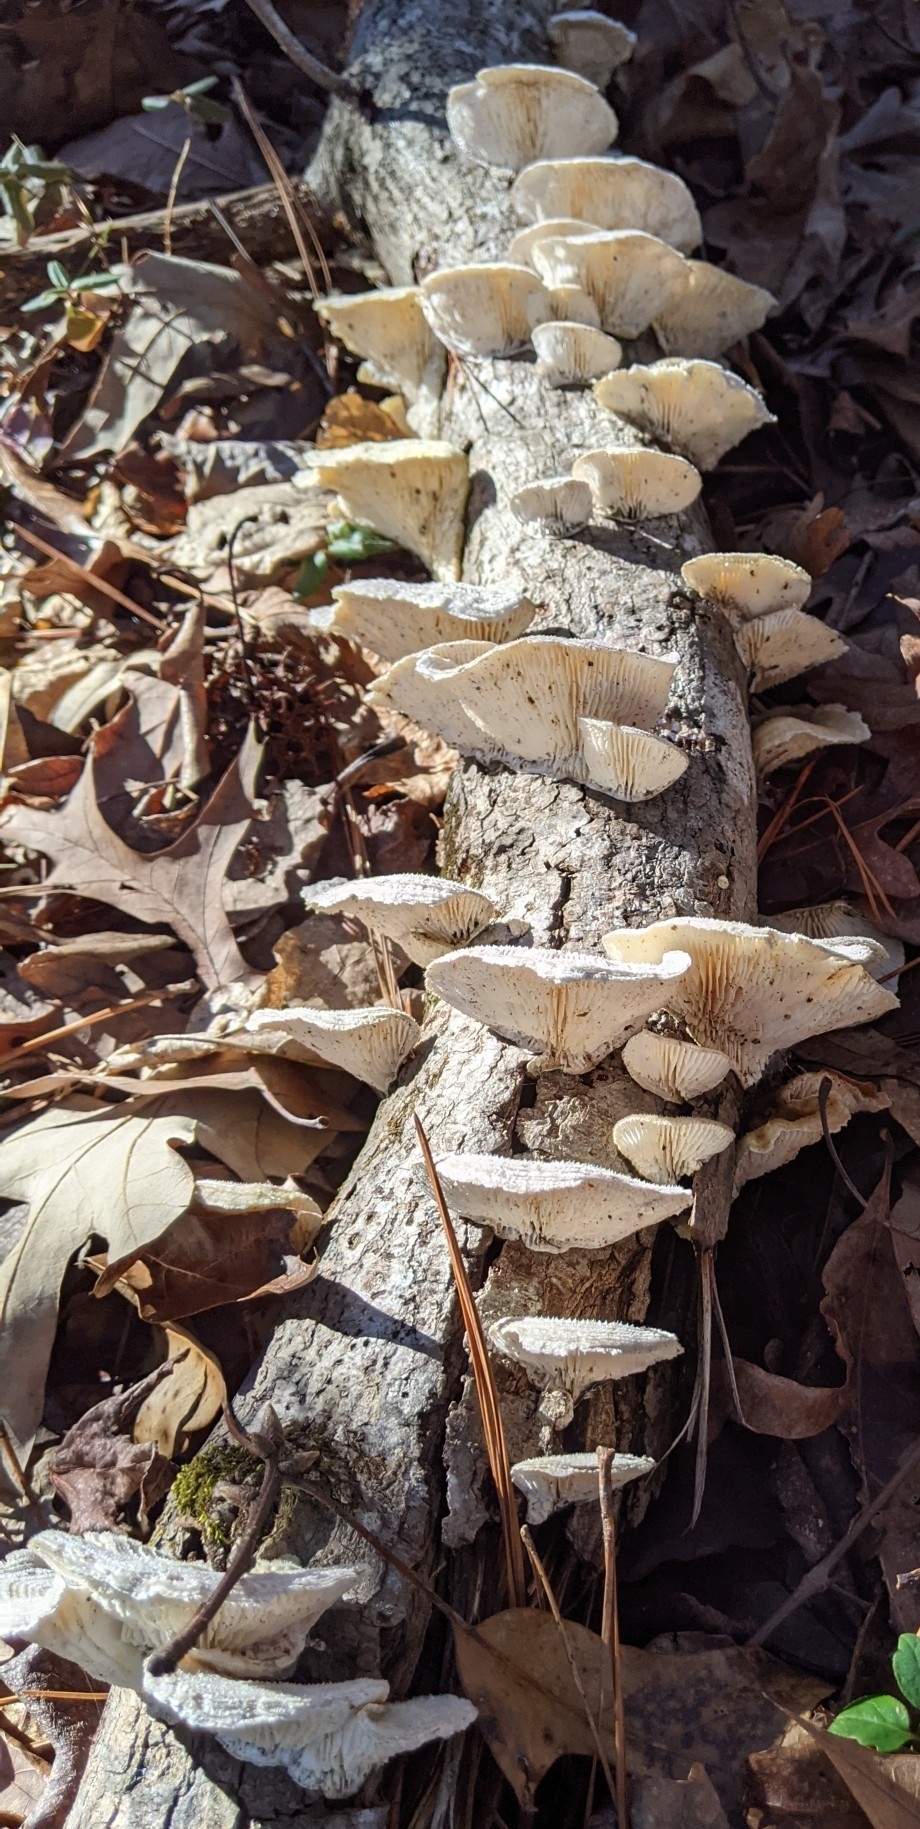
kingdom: Fungi
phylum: Basidiomycota
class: Agaricomycetes
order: Polyporales
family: Polyporaceae
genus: Lenzites
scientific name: Lenzites betulinus
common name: Birch mazegill
